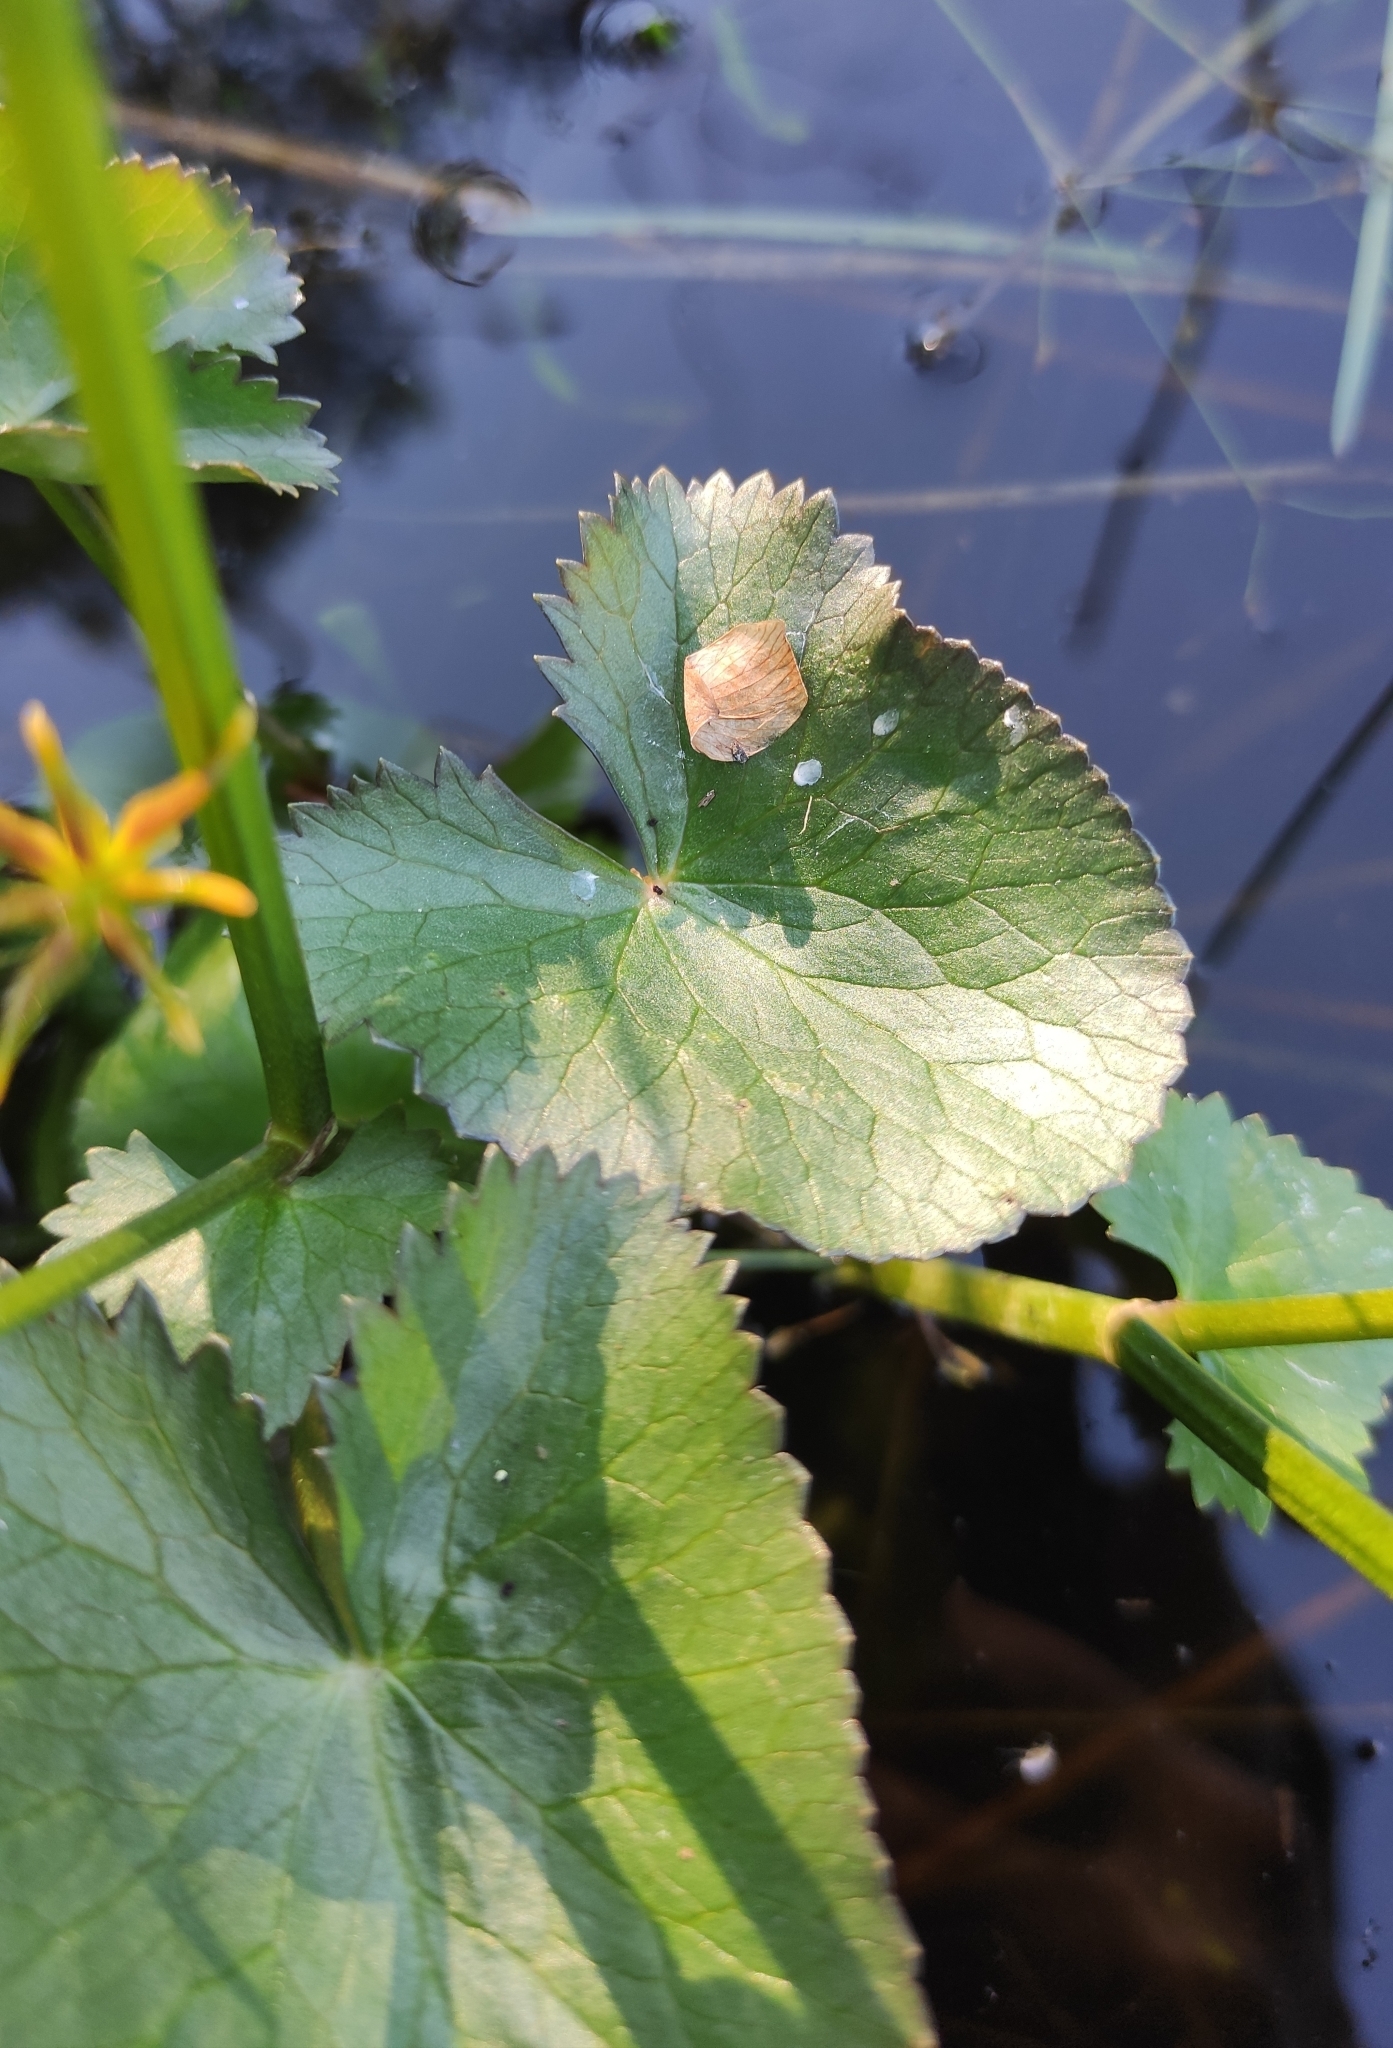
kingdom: Plantae
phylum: Tracheophyta
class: Magnoliopsida
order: Ranunculales
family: Ranunculaceae
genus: Caltha
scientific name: Caltha palustris
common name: Marsh marigold
